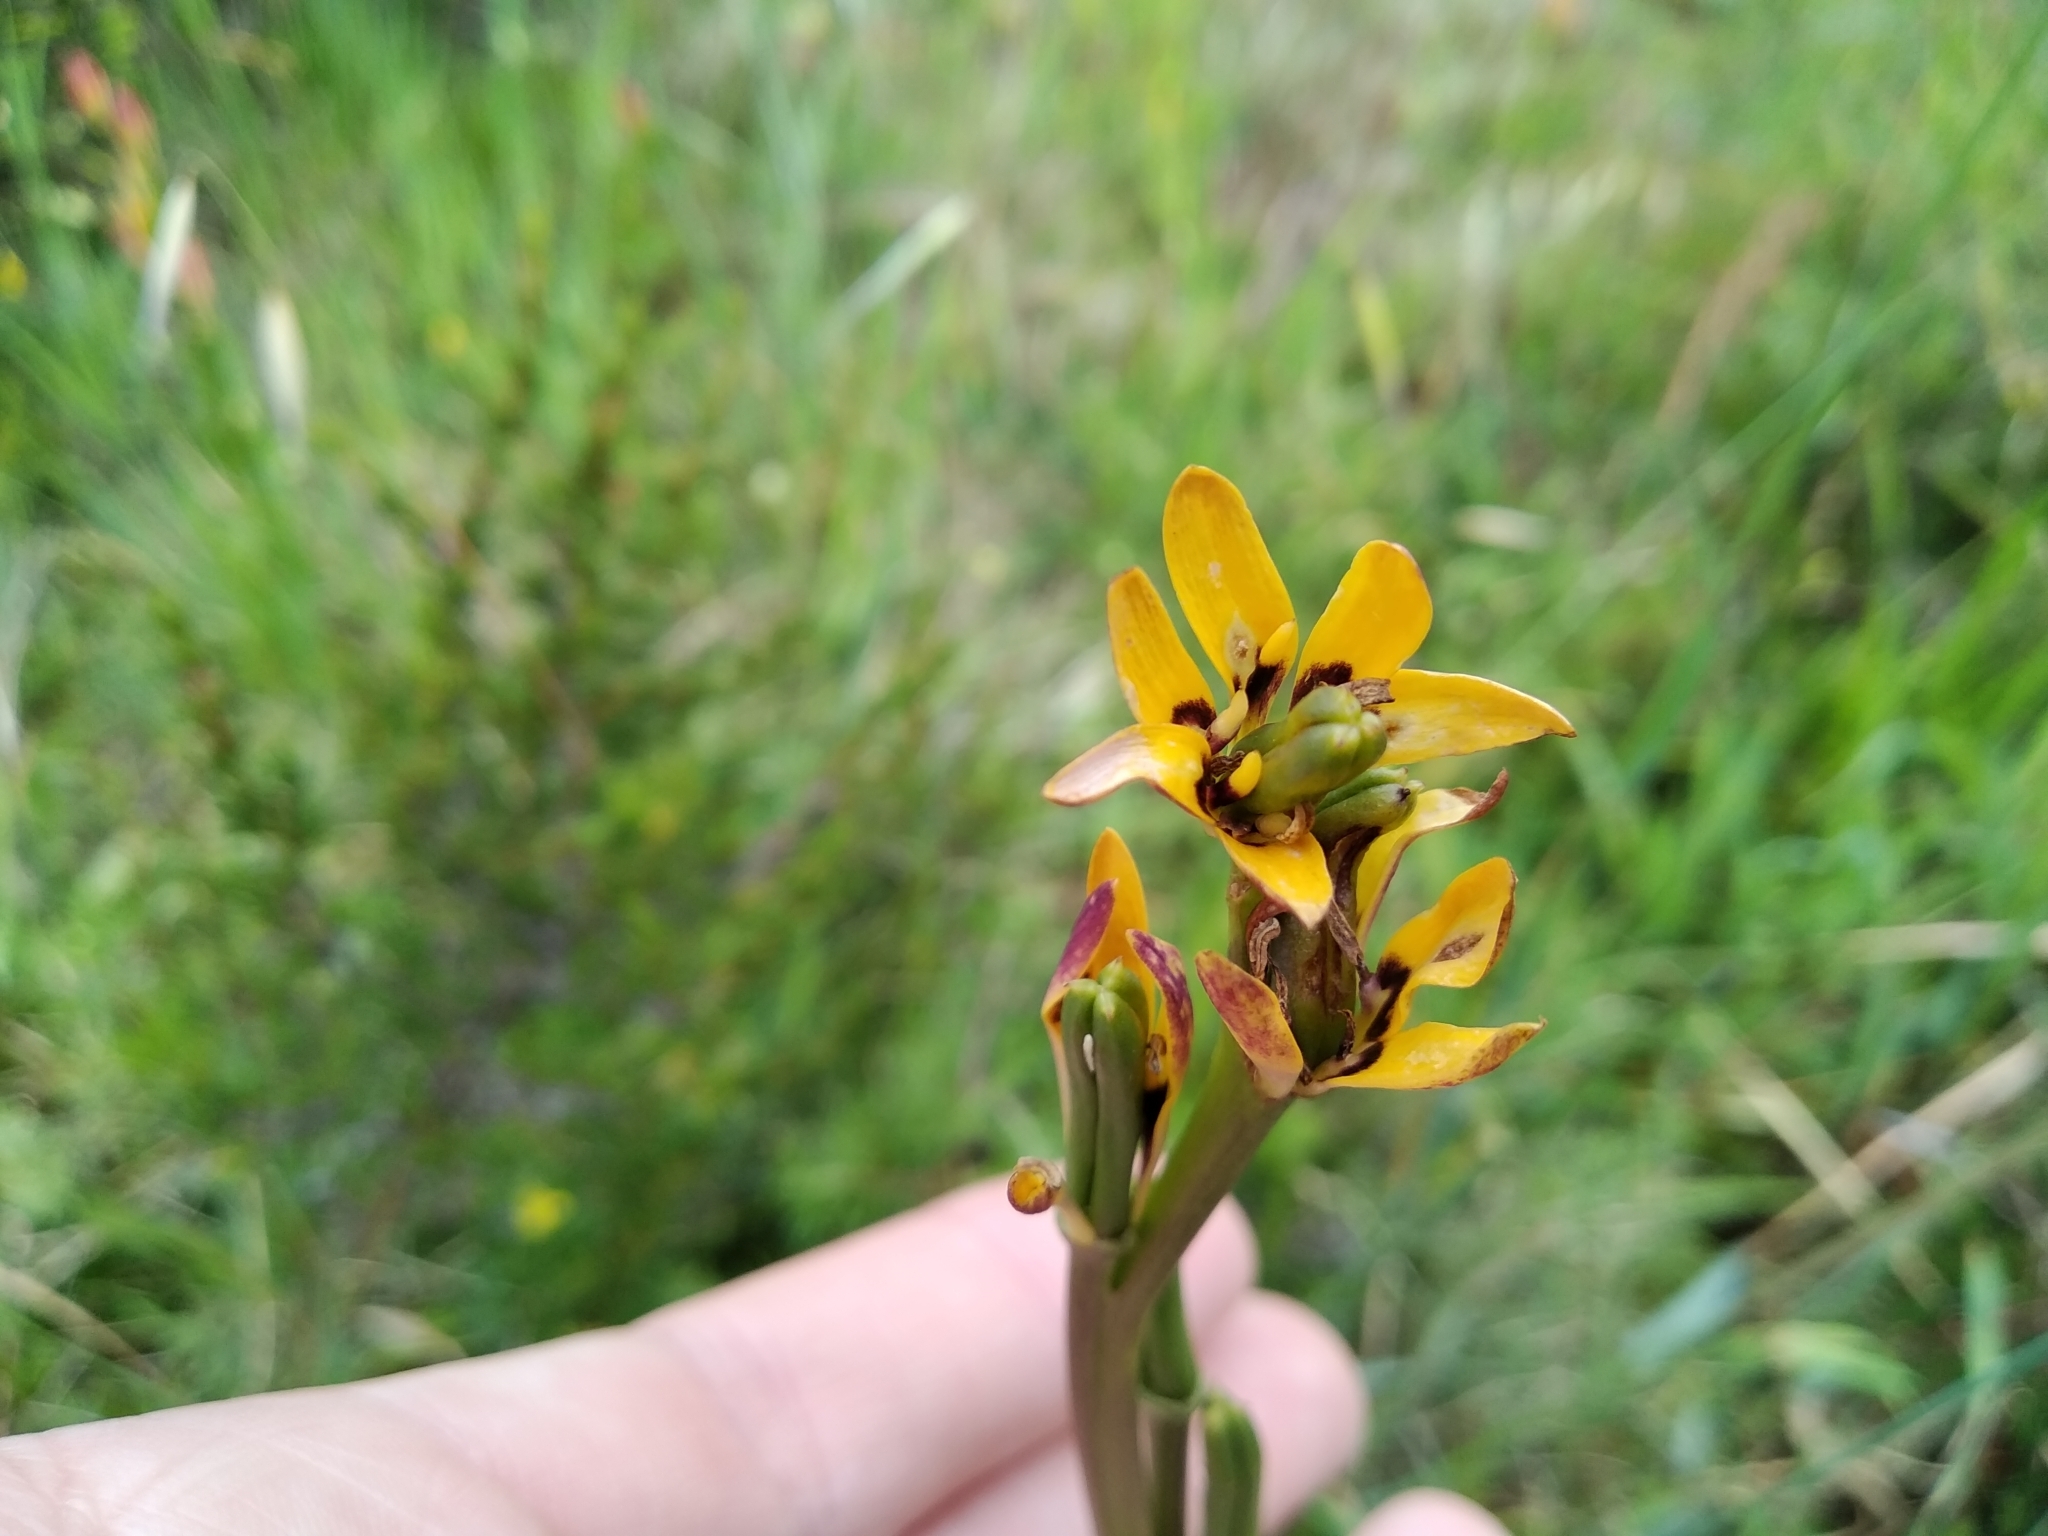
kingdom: Plantae
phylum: Tracheophyta
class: Liliopsida
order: Liliales
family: Colchicaceae
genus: Baeometra
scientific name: Baeometra uniflora
